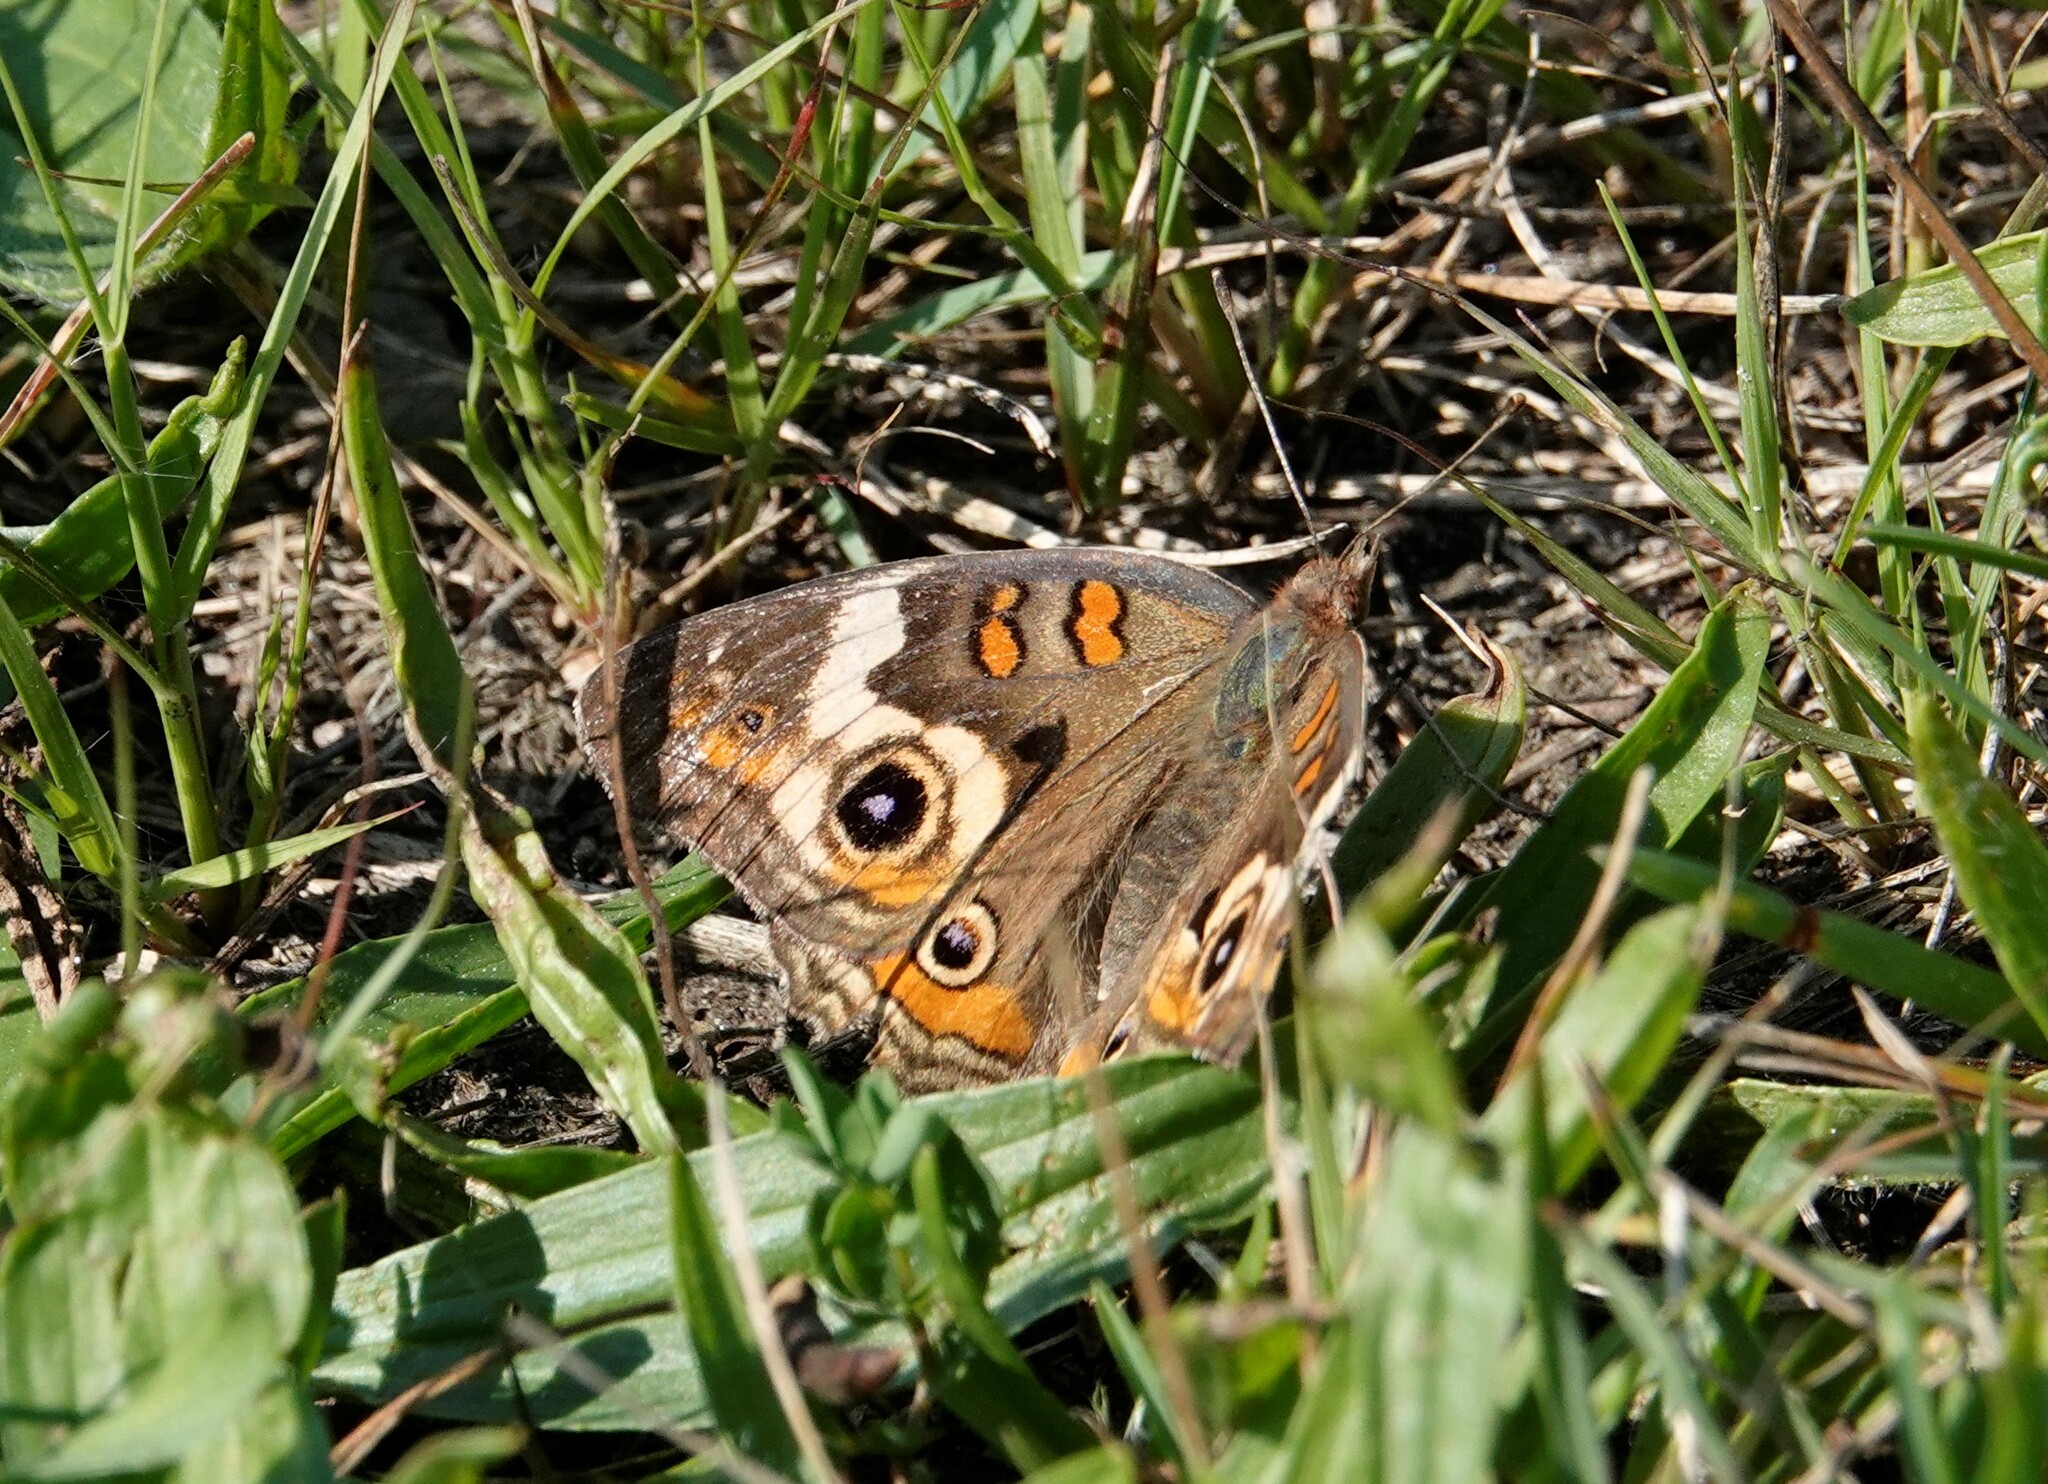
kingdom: Animalia
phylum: Arthropoda
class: Insecta
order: Lepidoptera
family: Nymphalidae
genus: Junonia
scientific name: Junonia coenia
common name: Common buckeye
